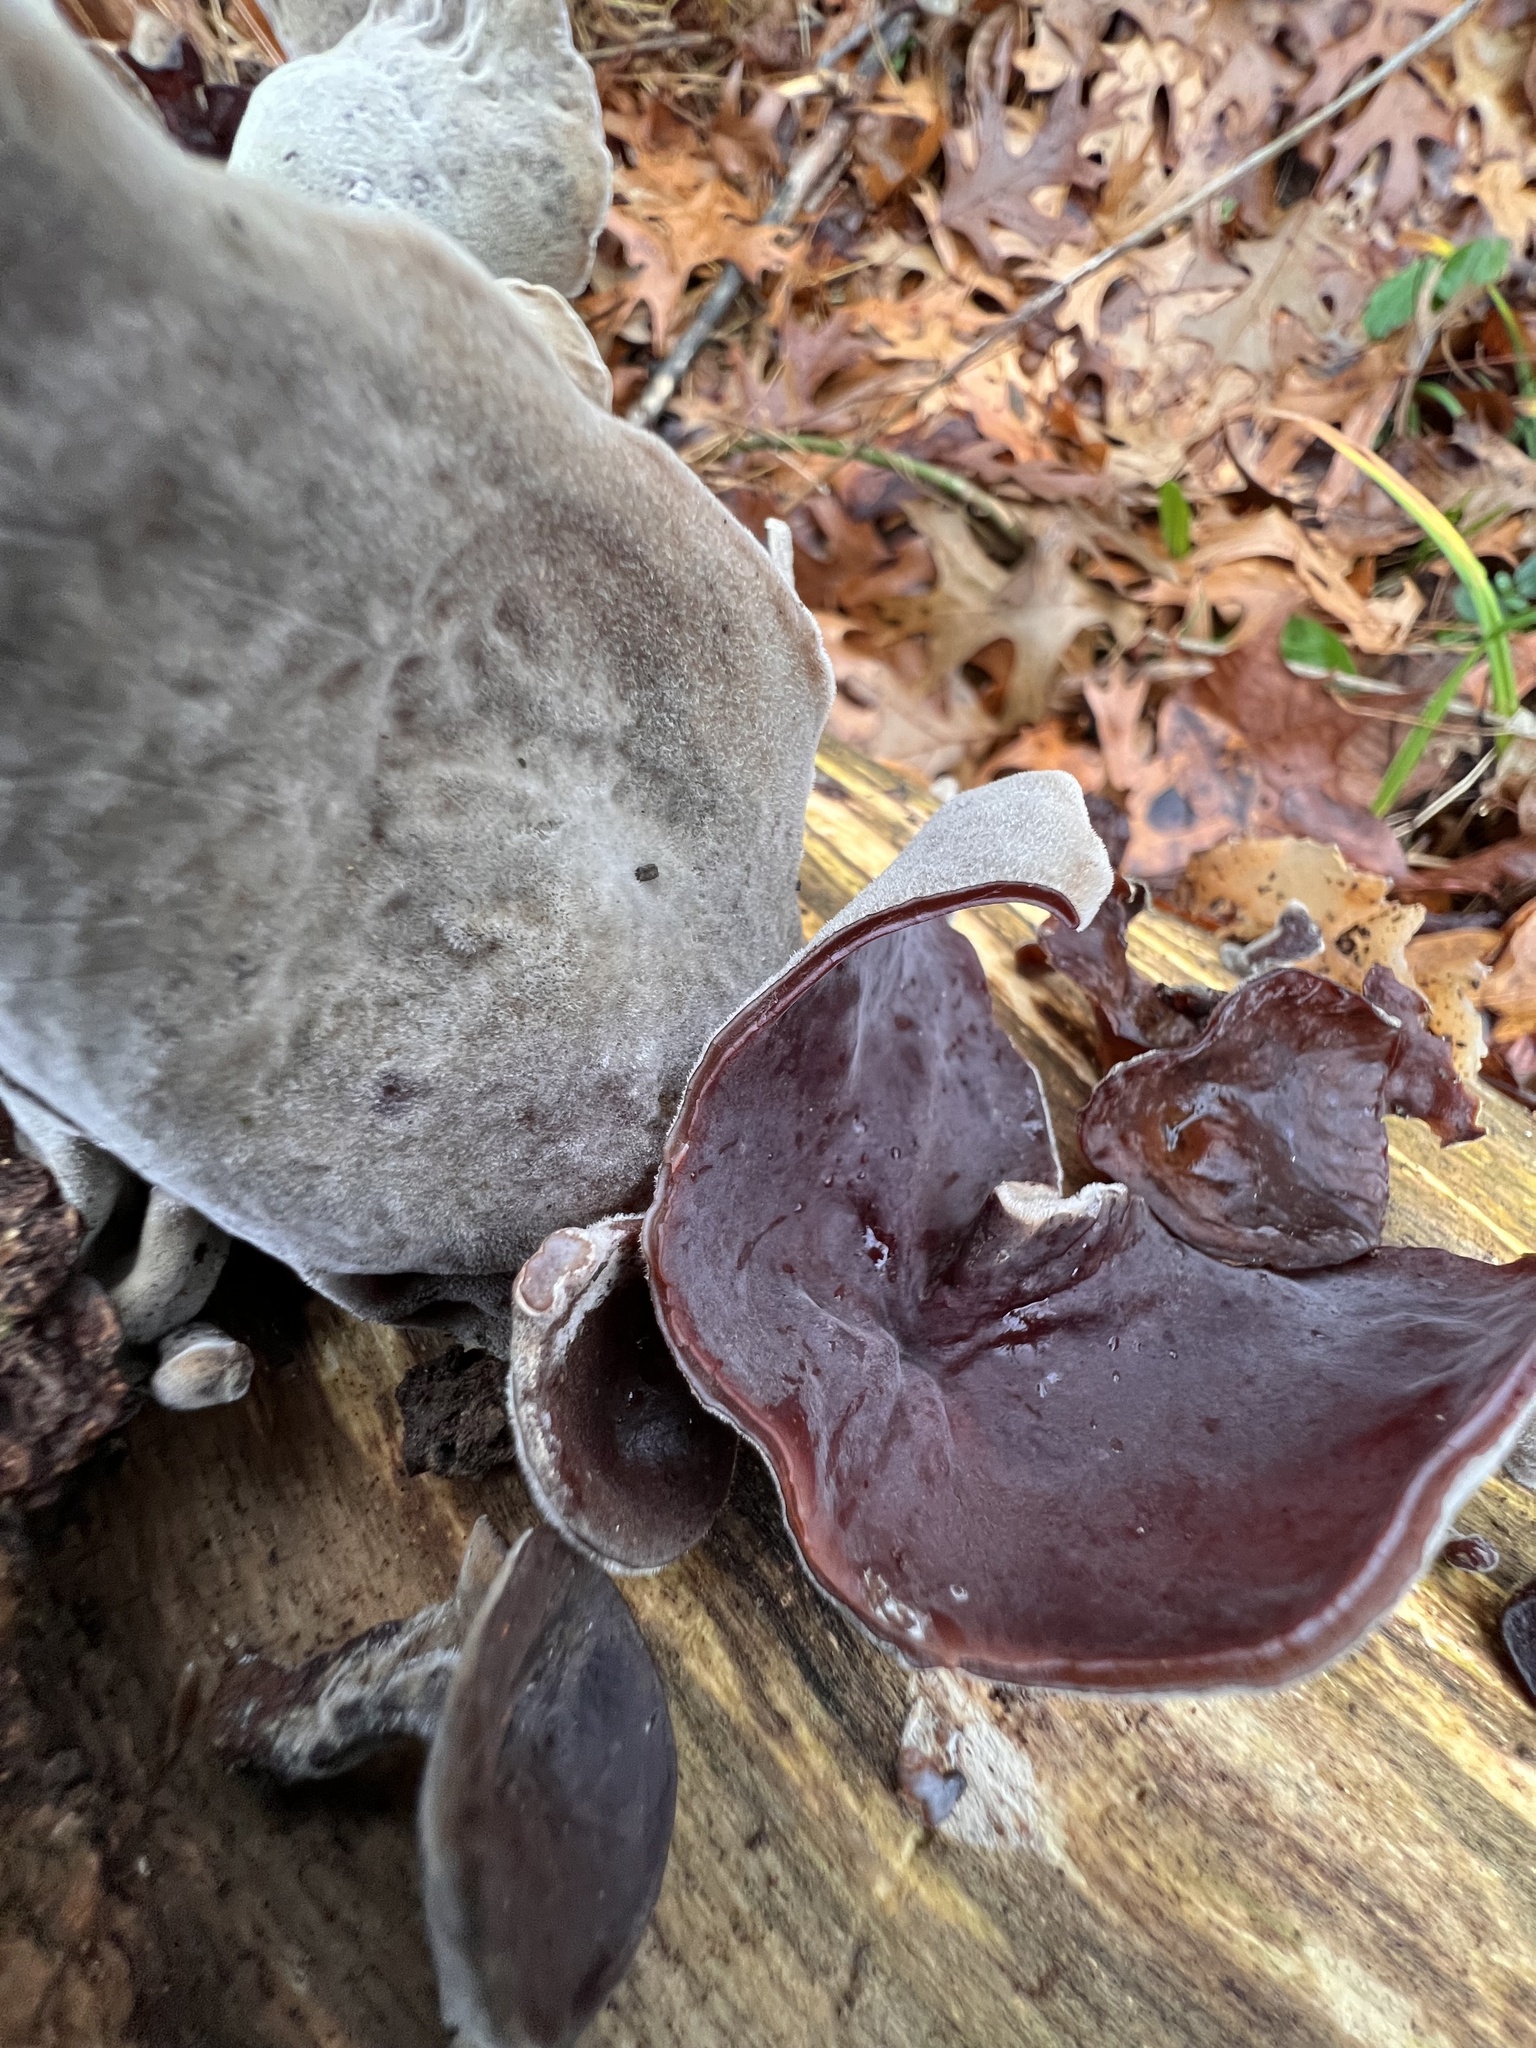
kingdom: Fungi
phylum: Basidiomycota
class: Agaricomycetes
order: Auriculariales
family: Auriculariaceae
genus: Auricularia
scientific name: Auricularia nigricans
